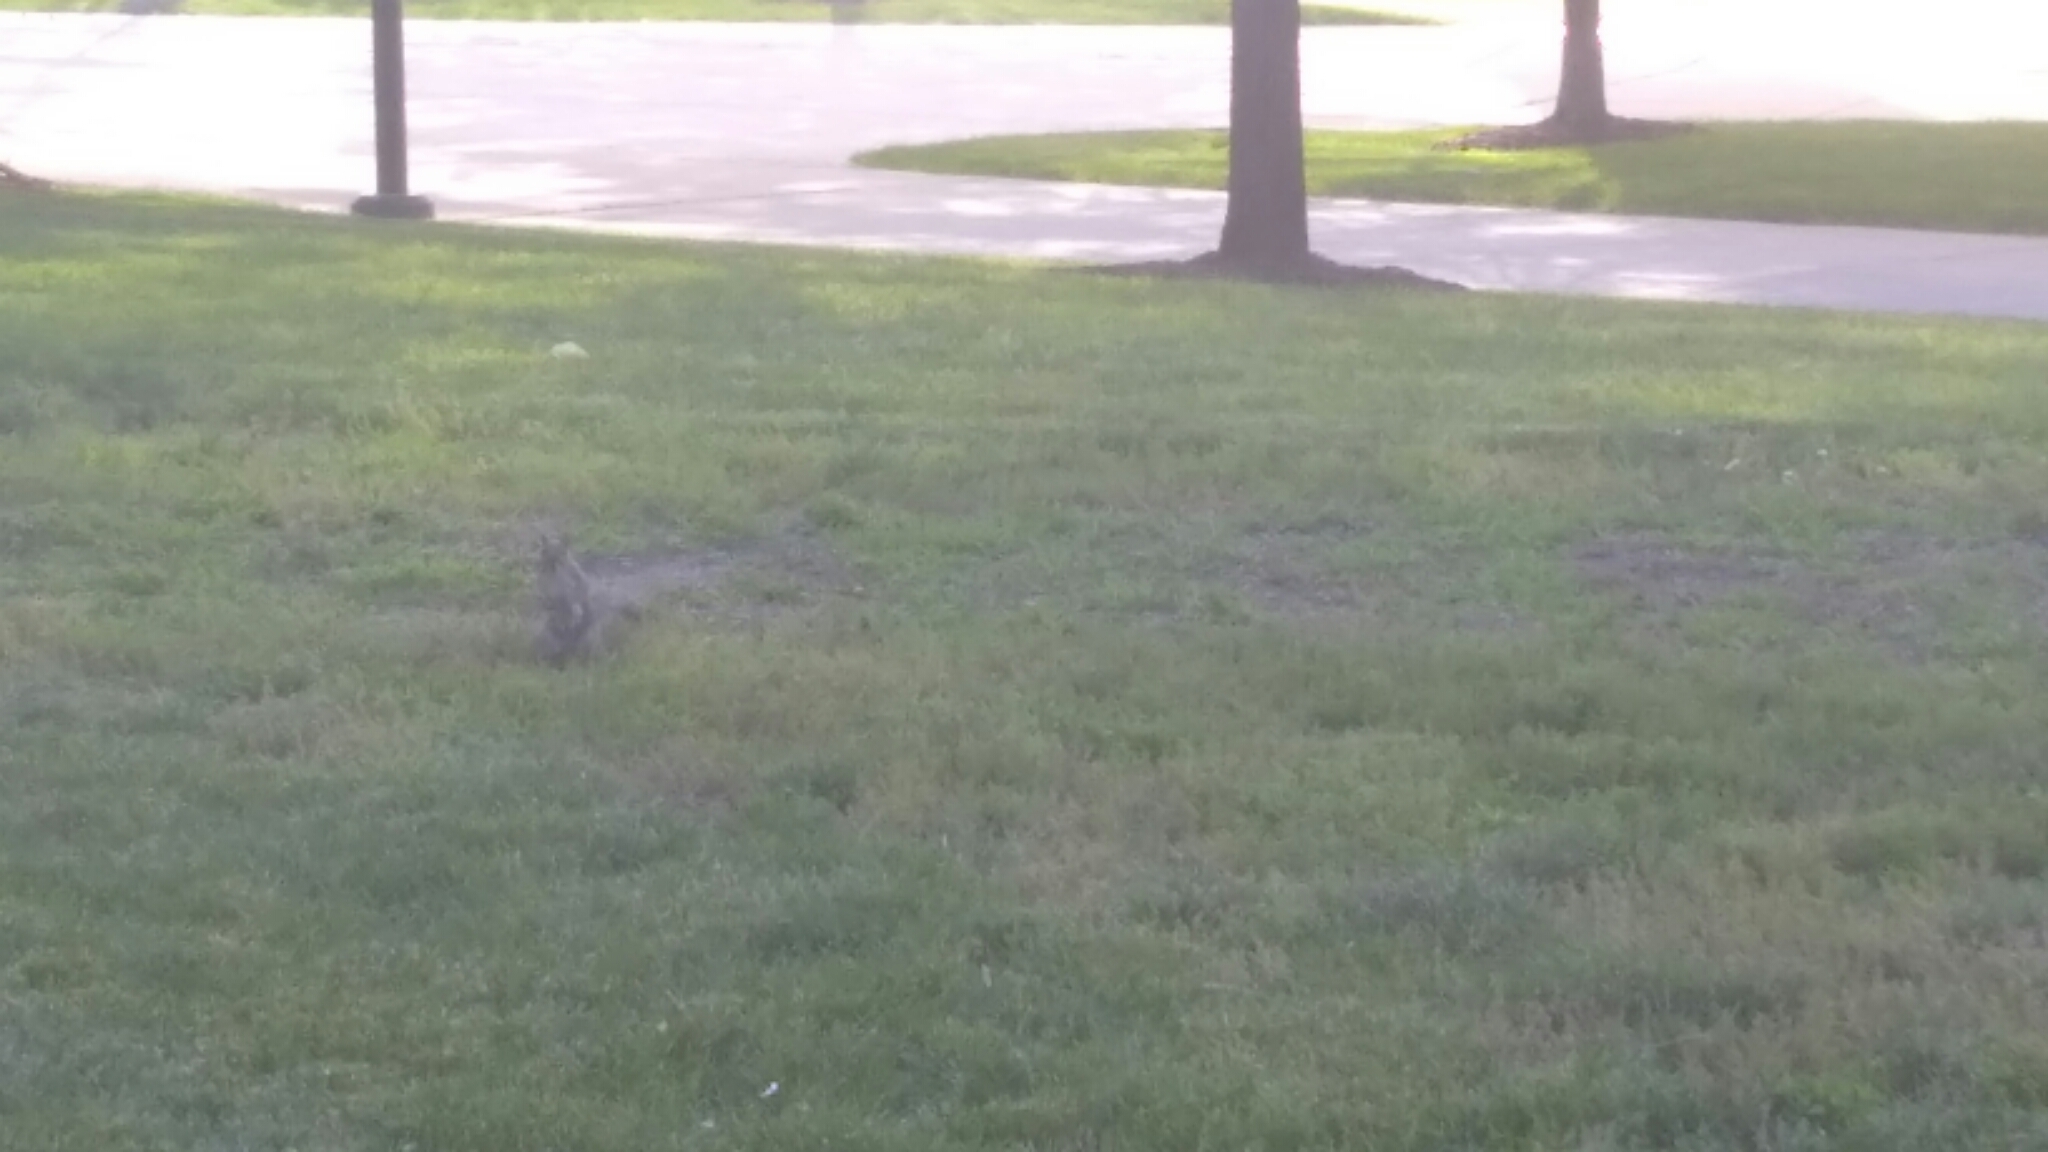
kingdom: Animalia
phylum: Chordata
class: Mammalia
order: Lagomorpha
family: Leporidae
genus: Sylvilagus
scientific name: Sylvilagus floridanus
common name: Eastern cottontail
